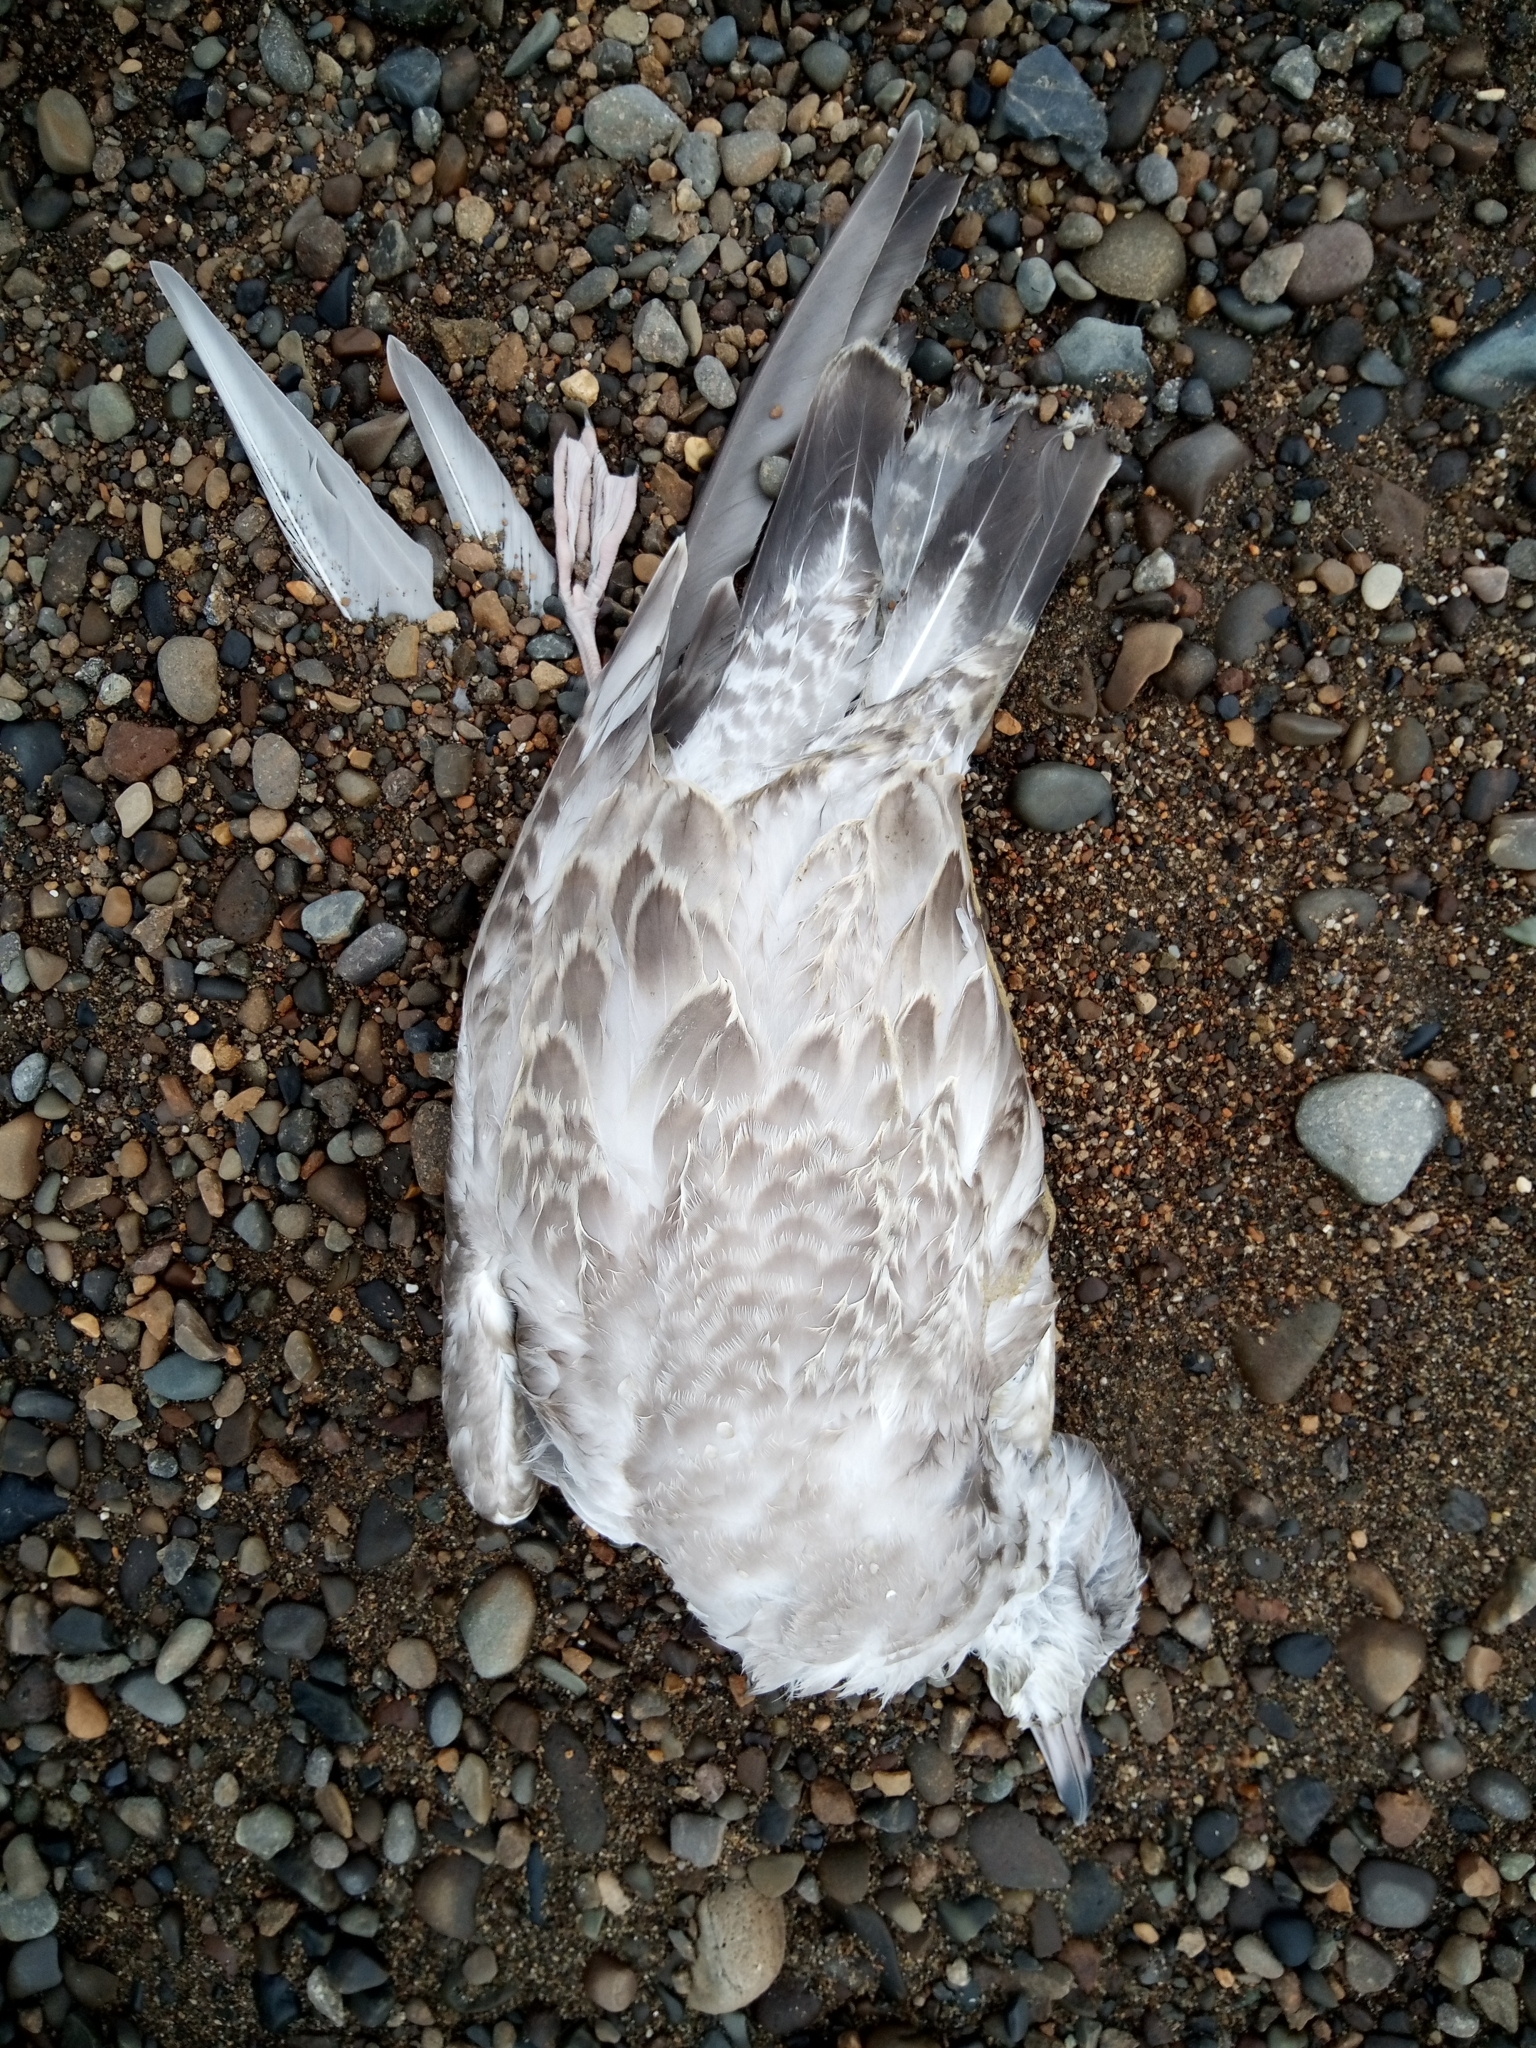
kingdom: Animalia
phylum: Chordata
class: Aves
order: Charadriiformes
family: Laridae
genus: Larus
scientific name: Larus brachyrhynchus
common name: Short-billed gull
